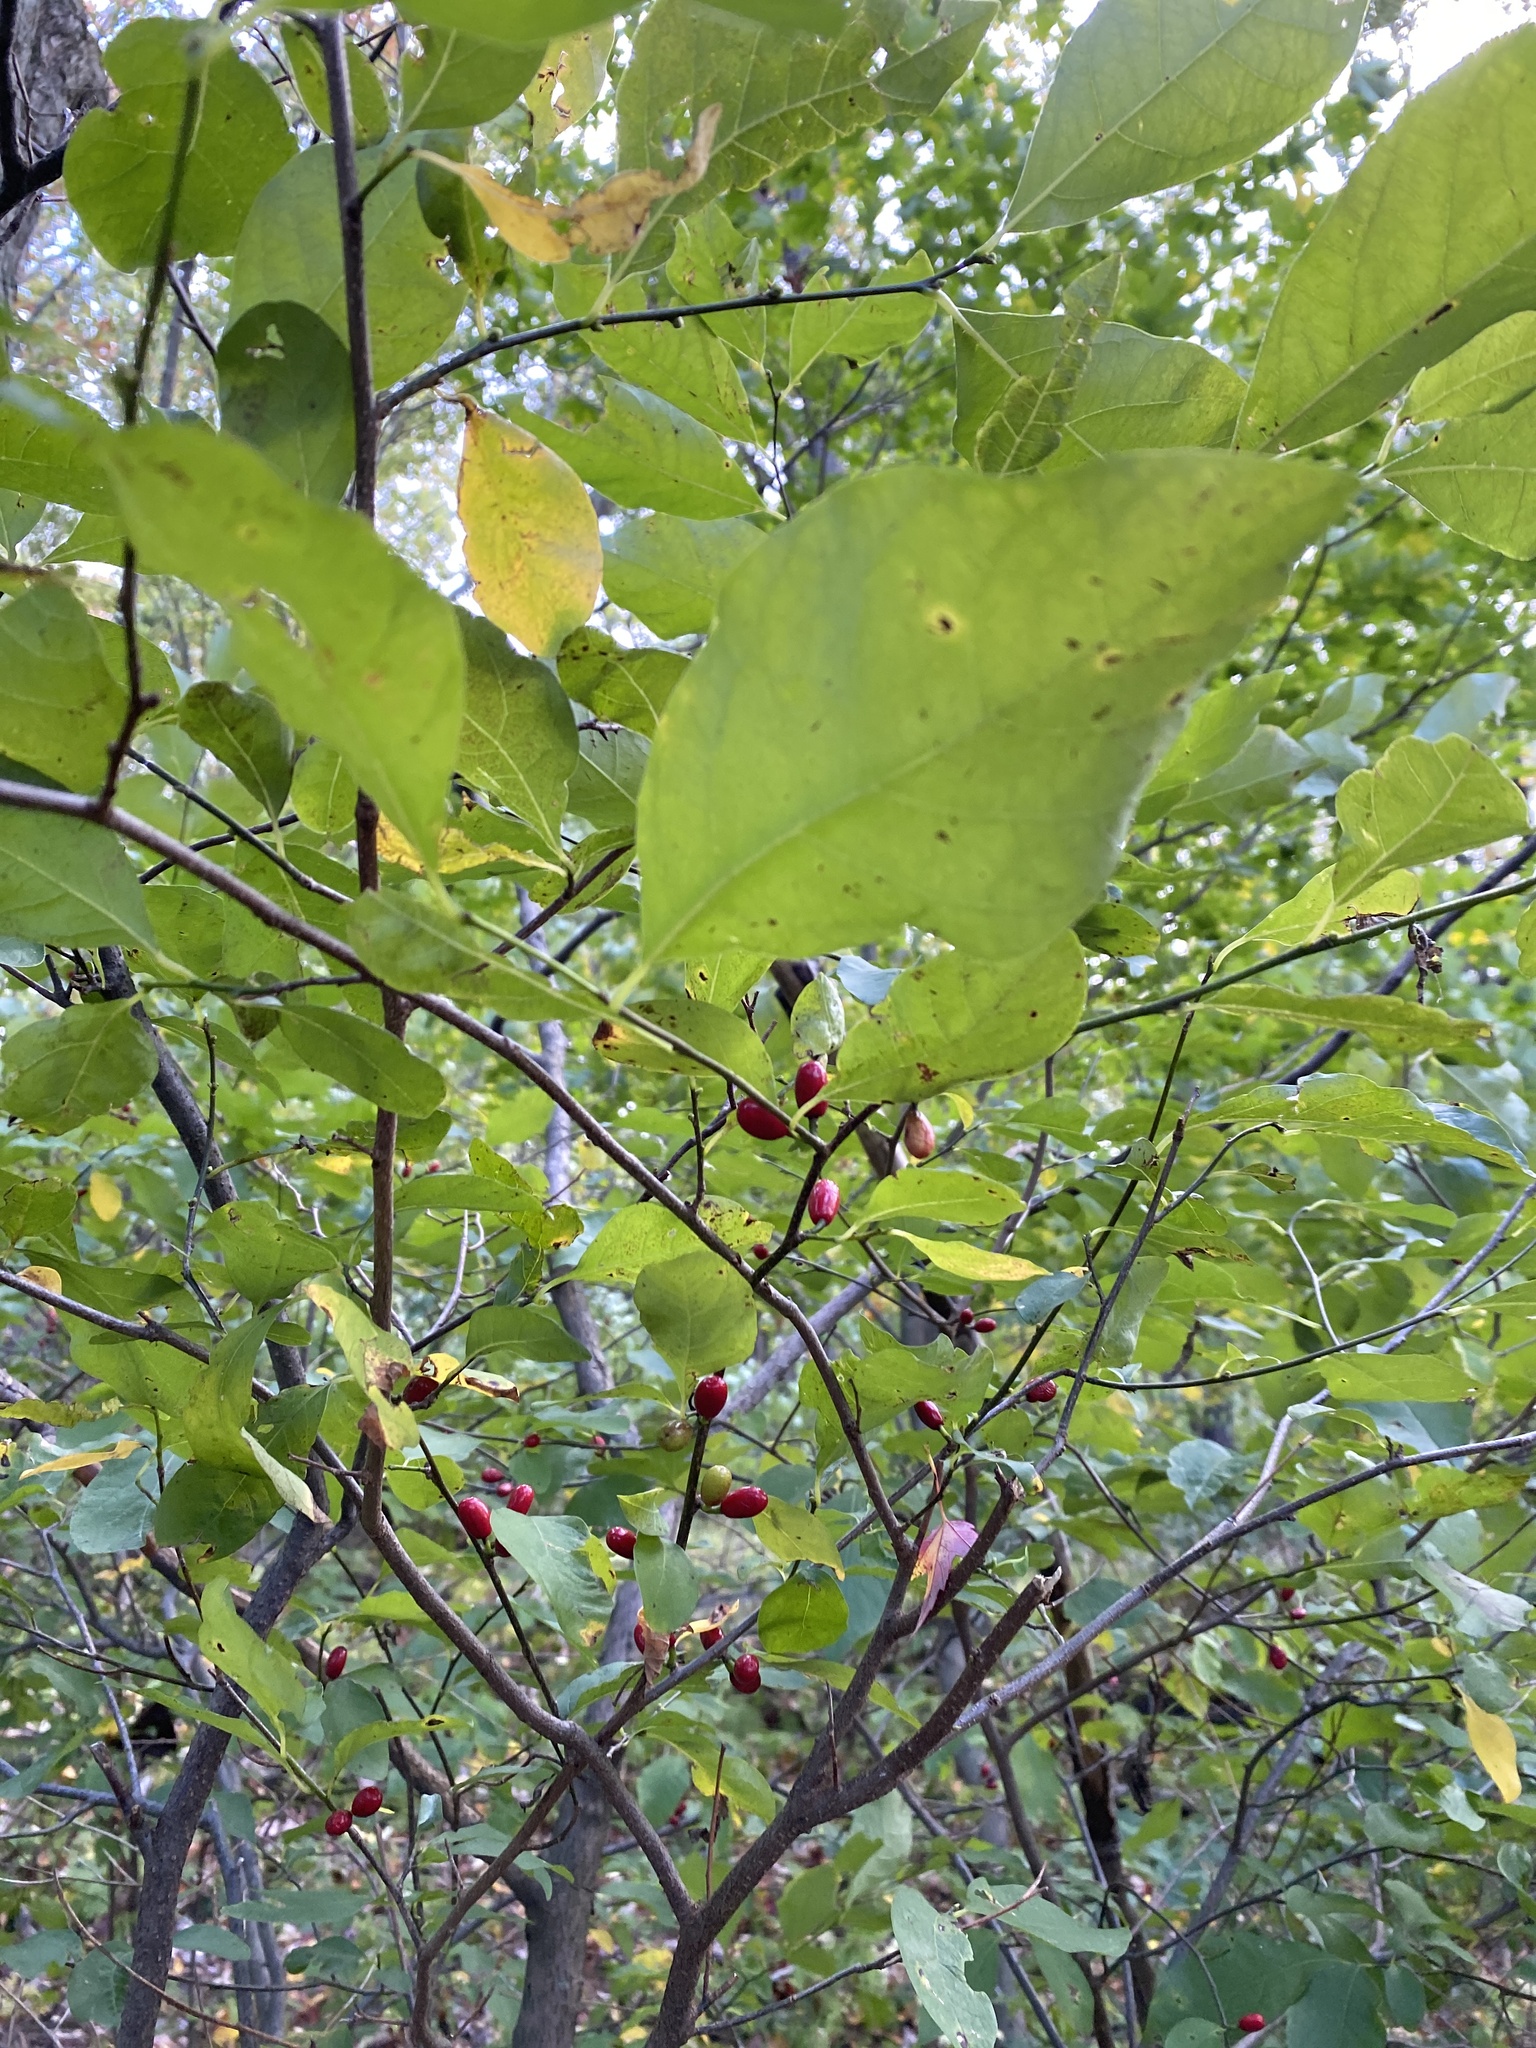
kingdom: Plantae
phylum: Tracheophyta
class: Magnoliopsida
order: Laurales
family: Lauraceae
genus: Lindera
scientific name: Lindera benzoin
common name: Spicebush
